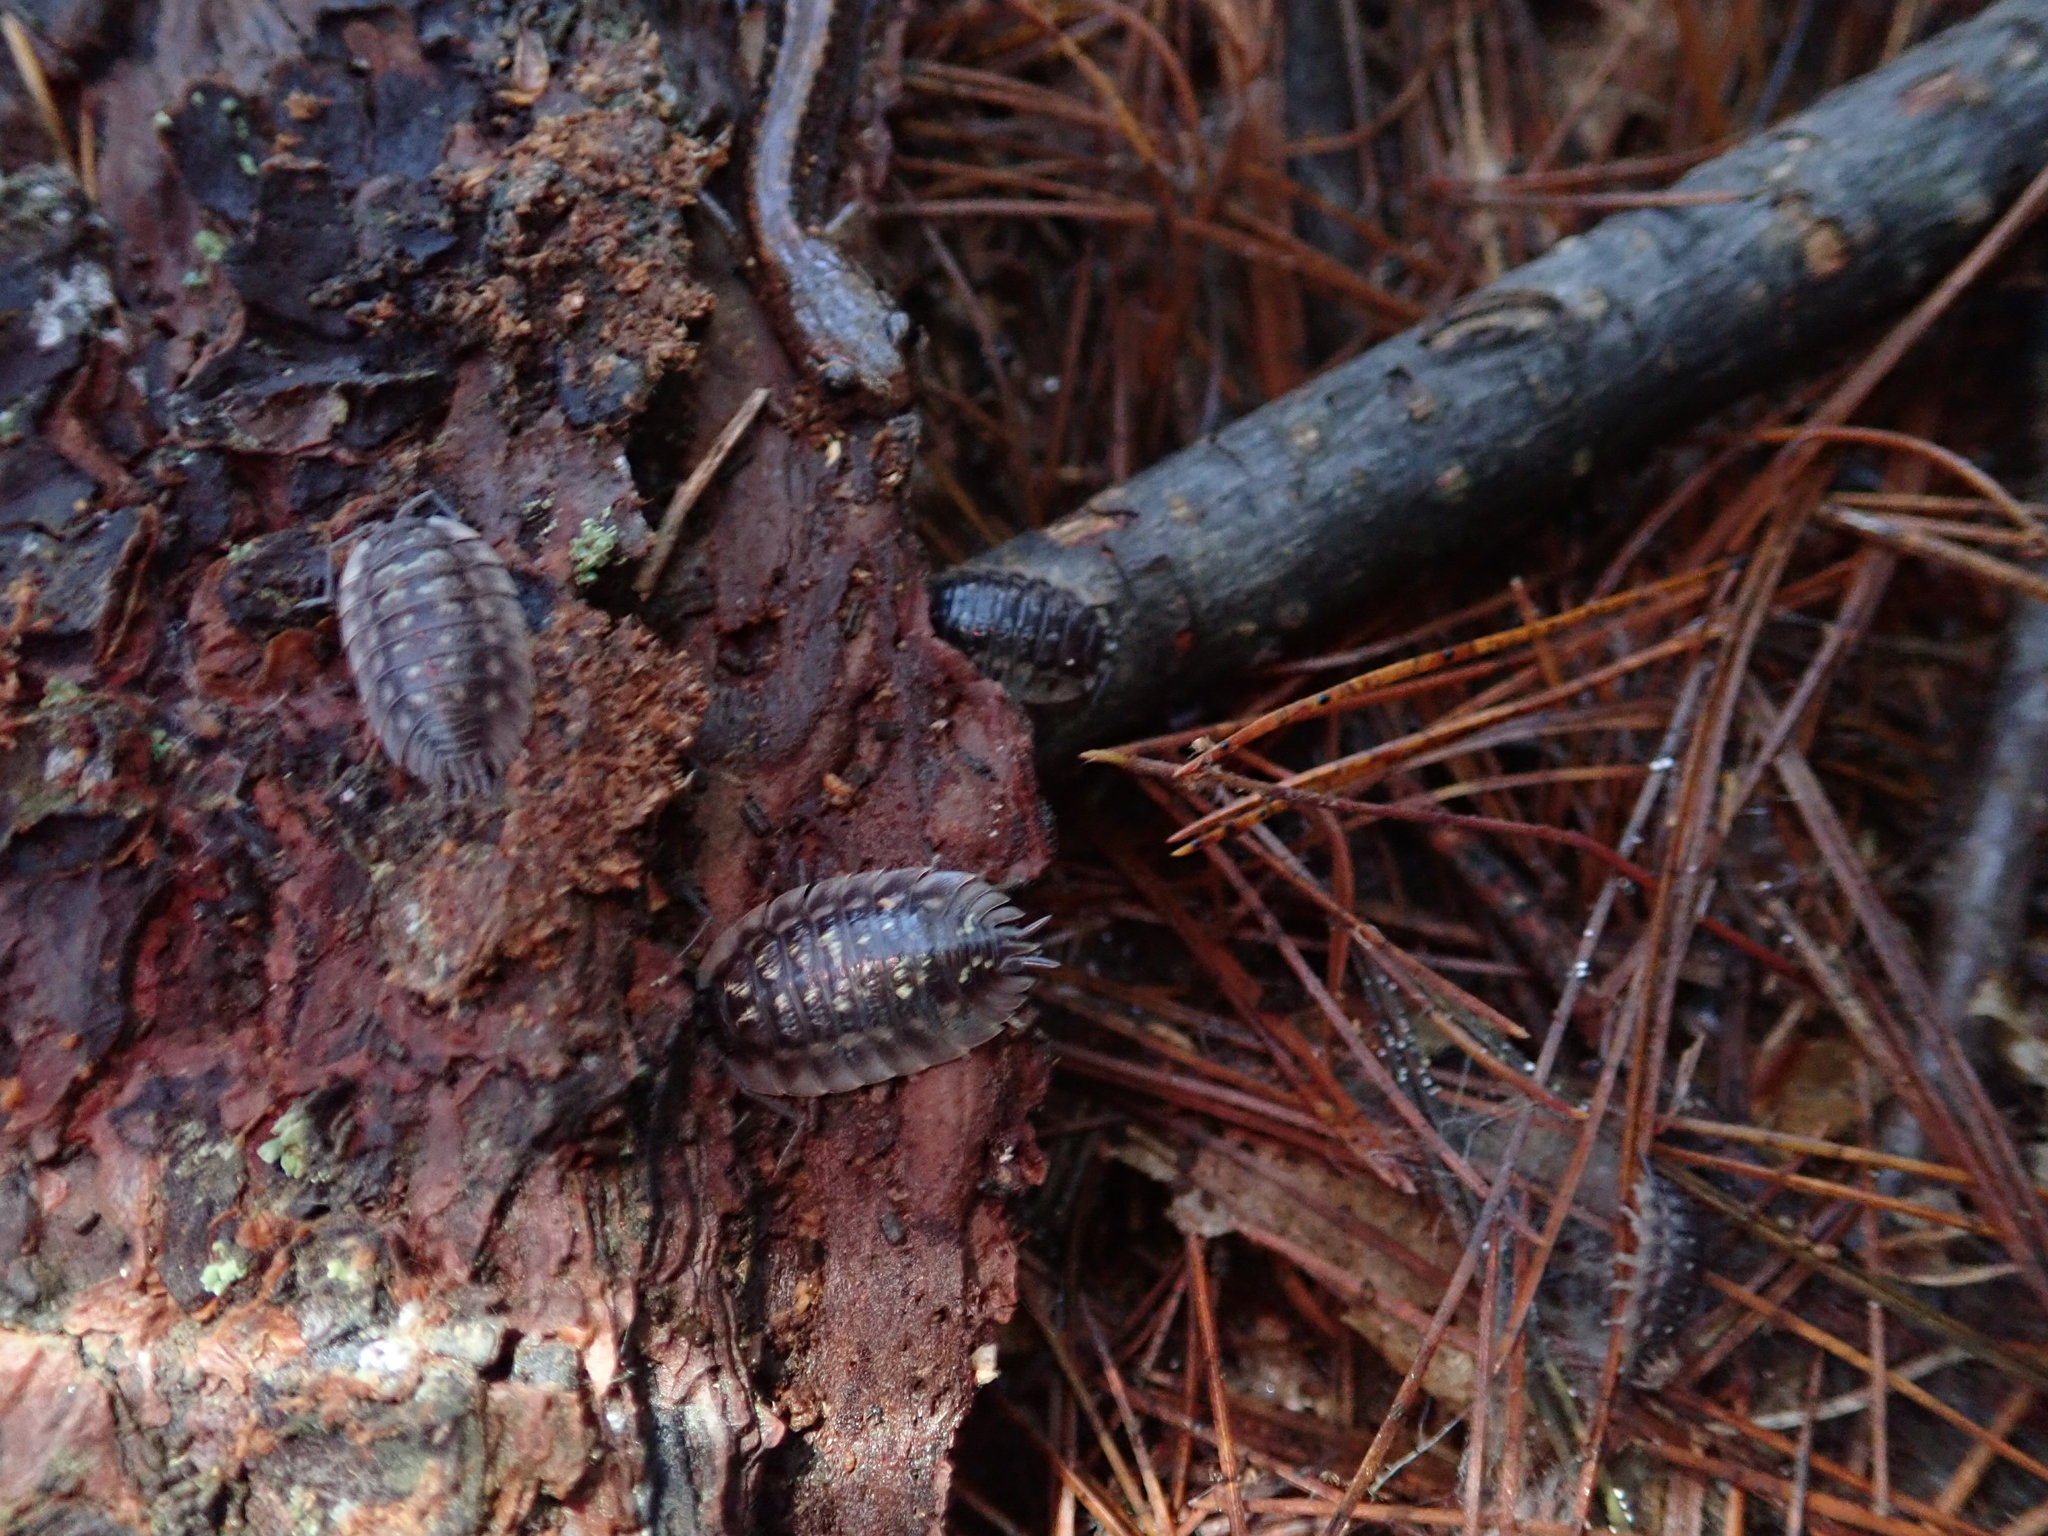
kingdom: Animalia
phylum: Arthropoda
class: Malacostraca
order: Isopoda
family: Oniscidae
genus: Oniscus
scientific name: Oniscus asellus
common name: Common shiny woodlouse
